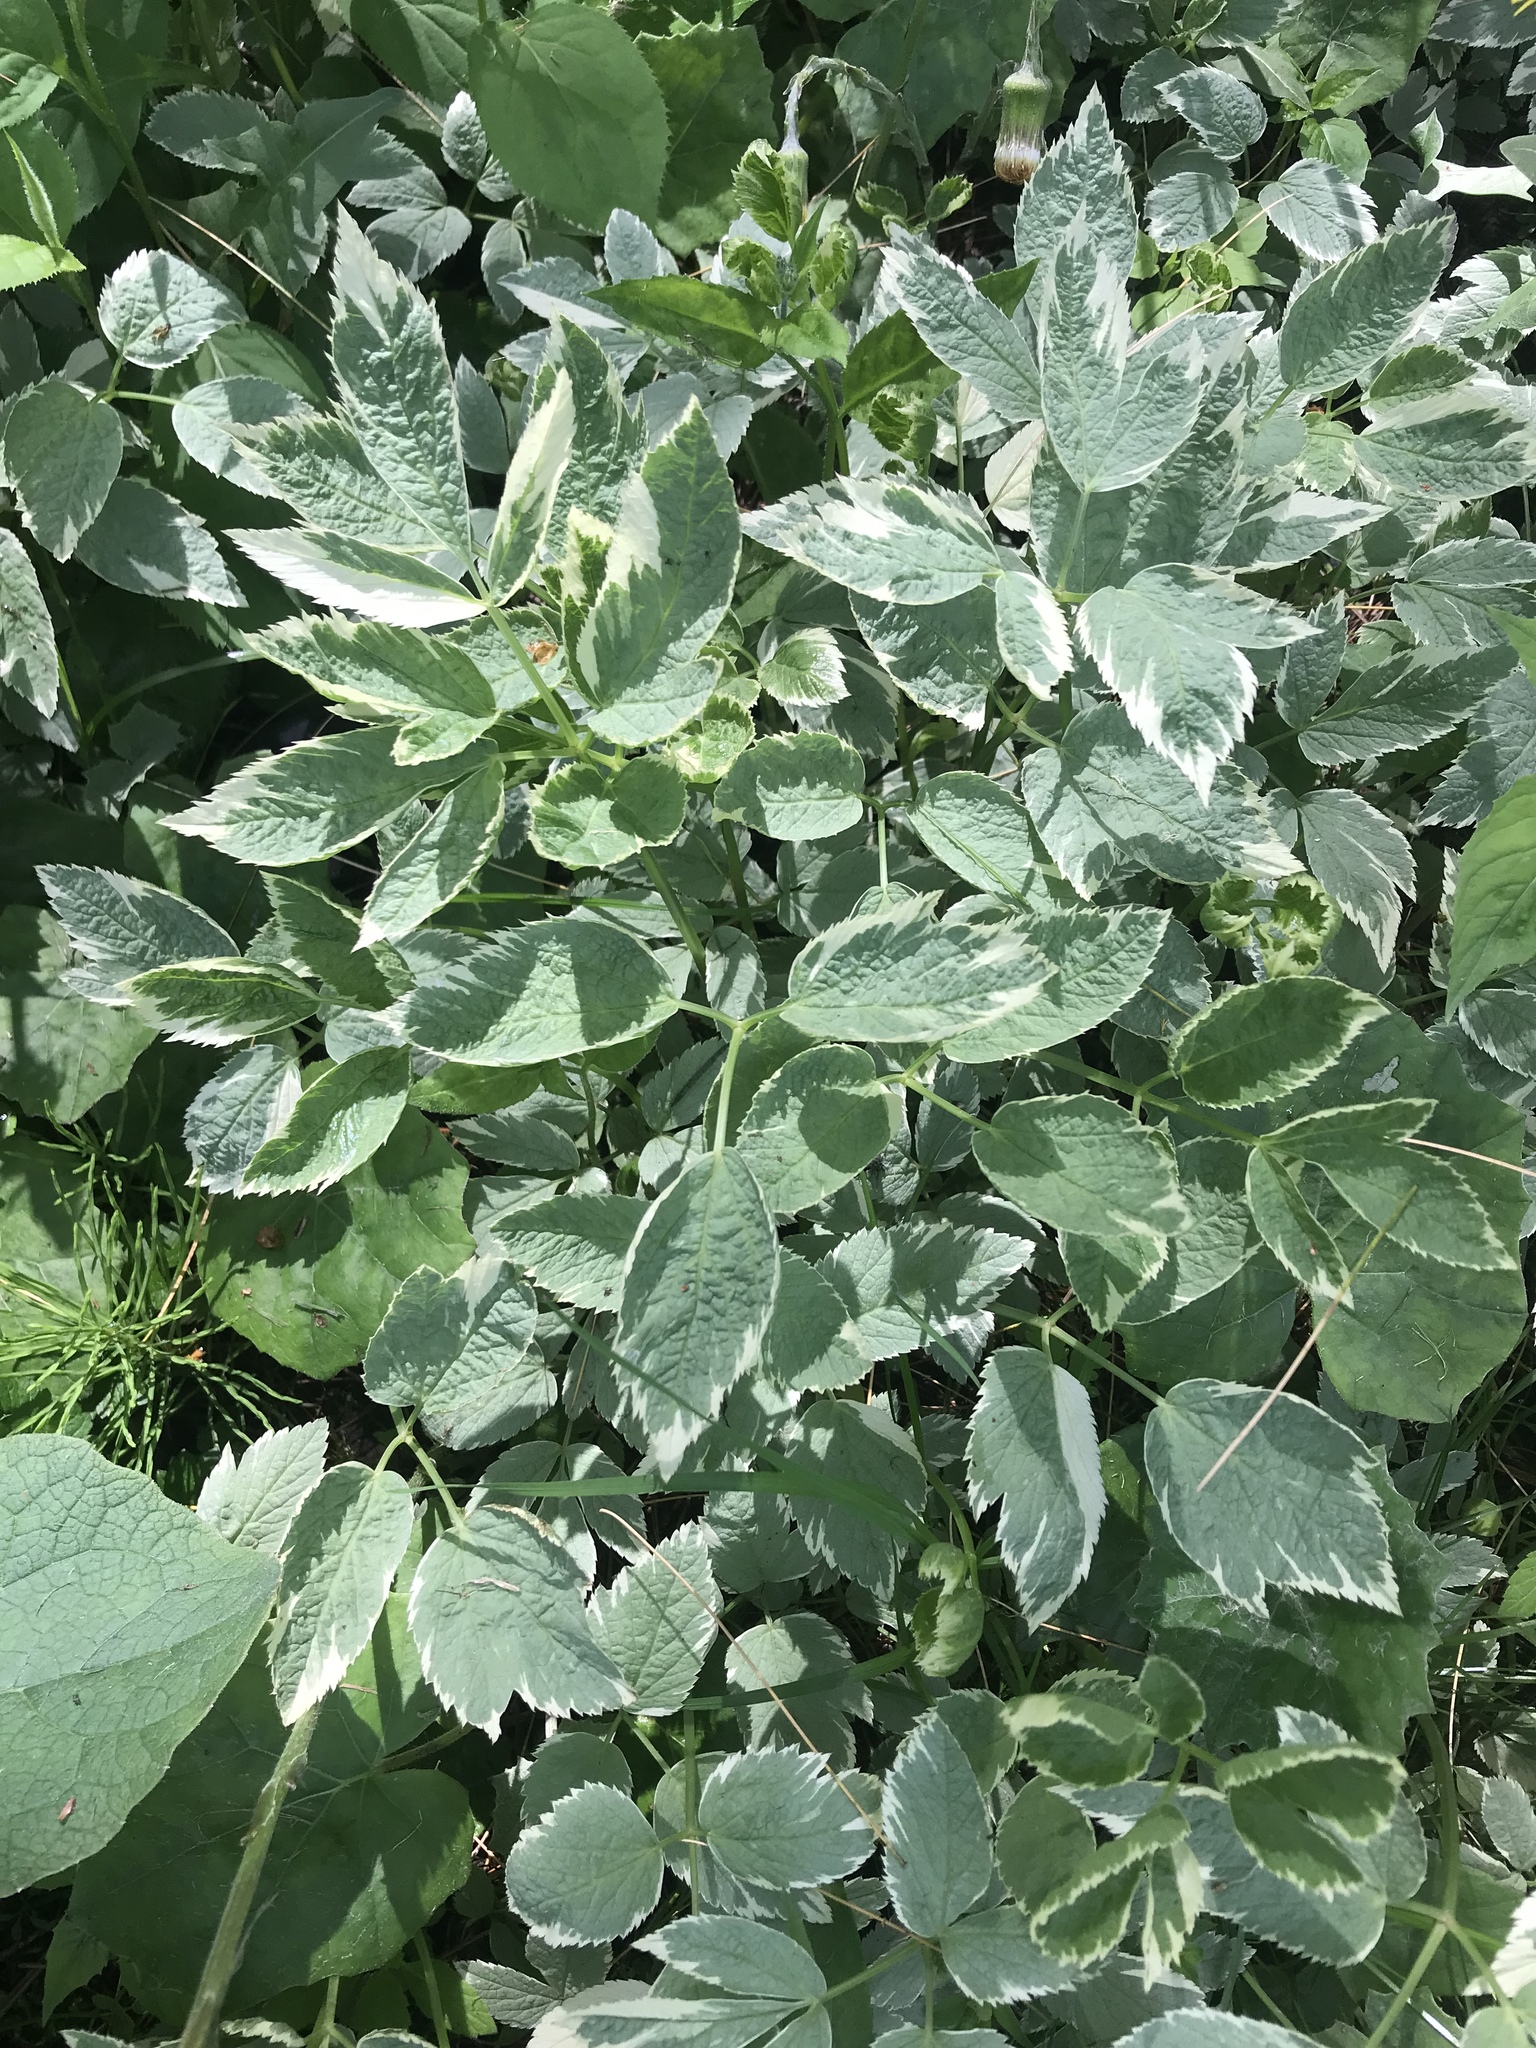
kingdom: Plantae
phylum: Tracheophyta
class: Magnoliopsida
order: Apiales
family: Apiaceae
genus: Aegopodium
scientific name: Aegopodium podagraria
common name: Ground-elder
